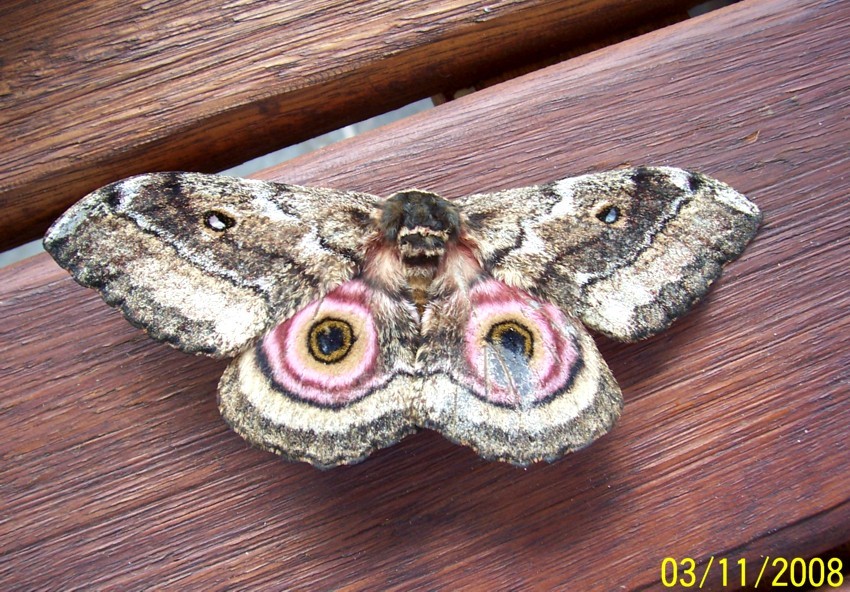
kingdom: Animalia
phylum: Arthropoda
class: Insecta
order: Lepidoptera
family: Saturniidae
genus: Gynanisa
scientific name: Gynanisa maja
